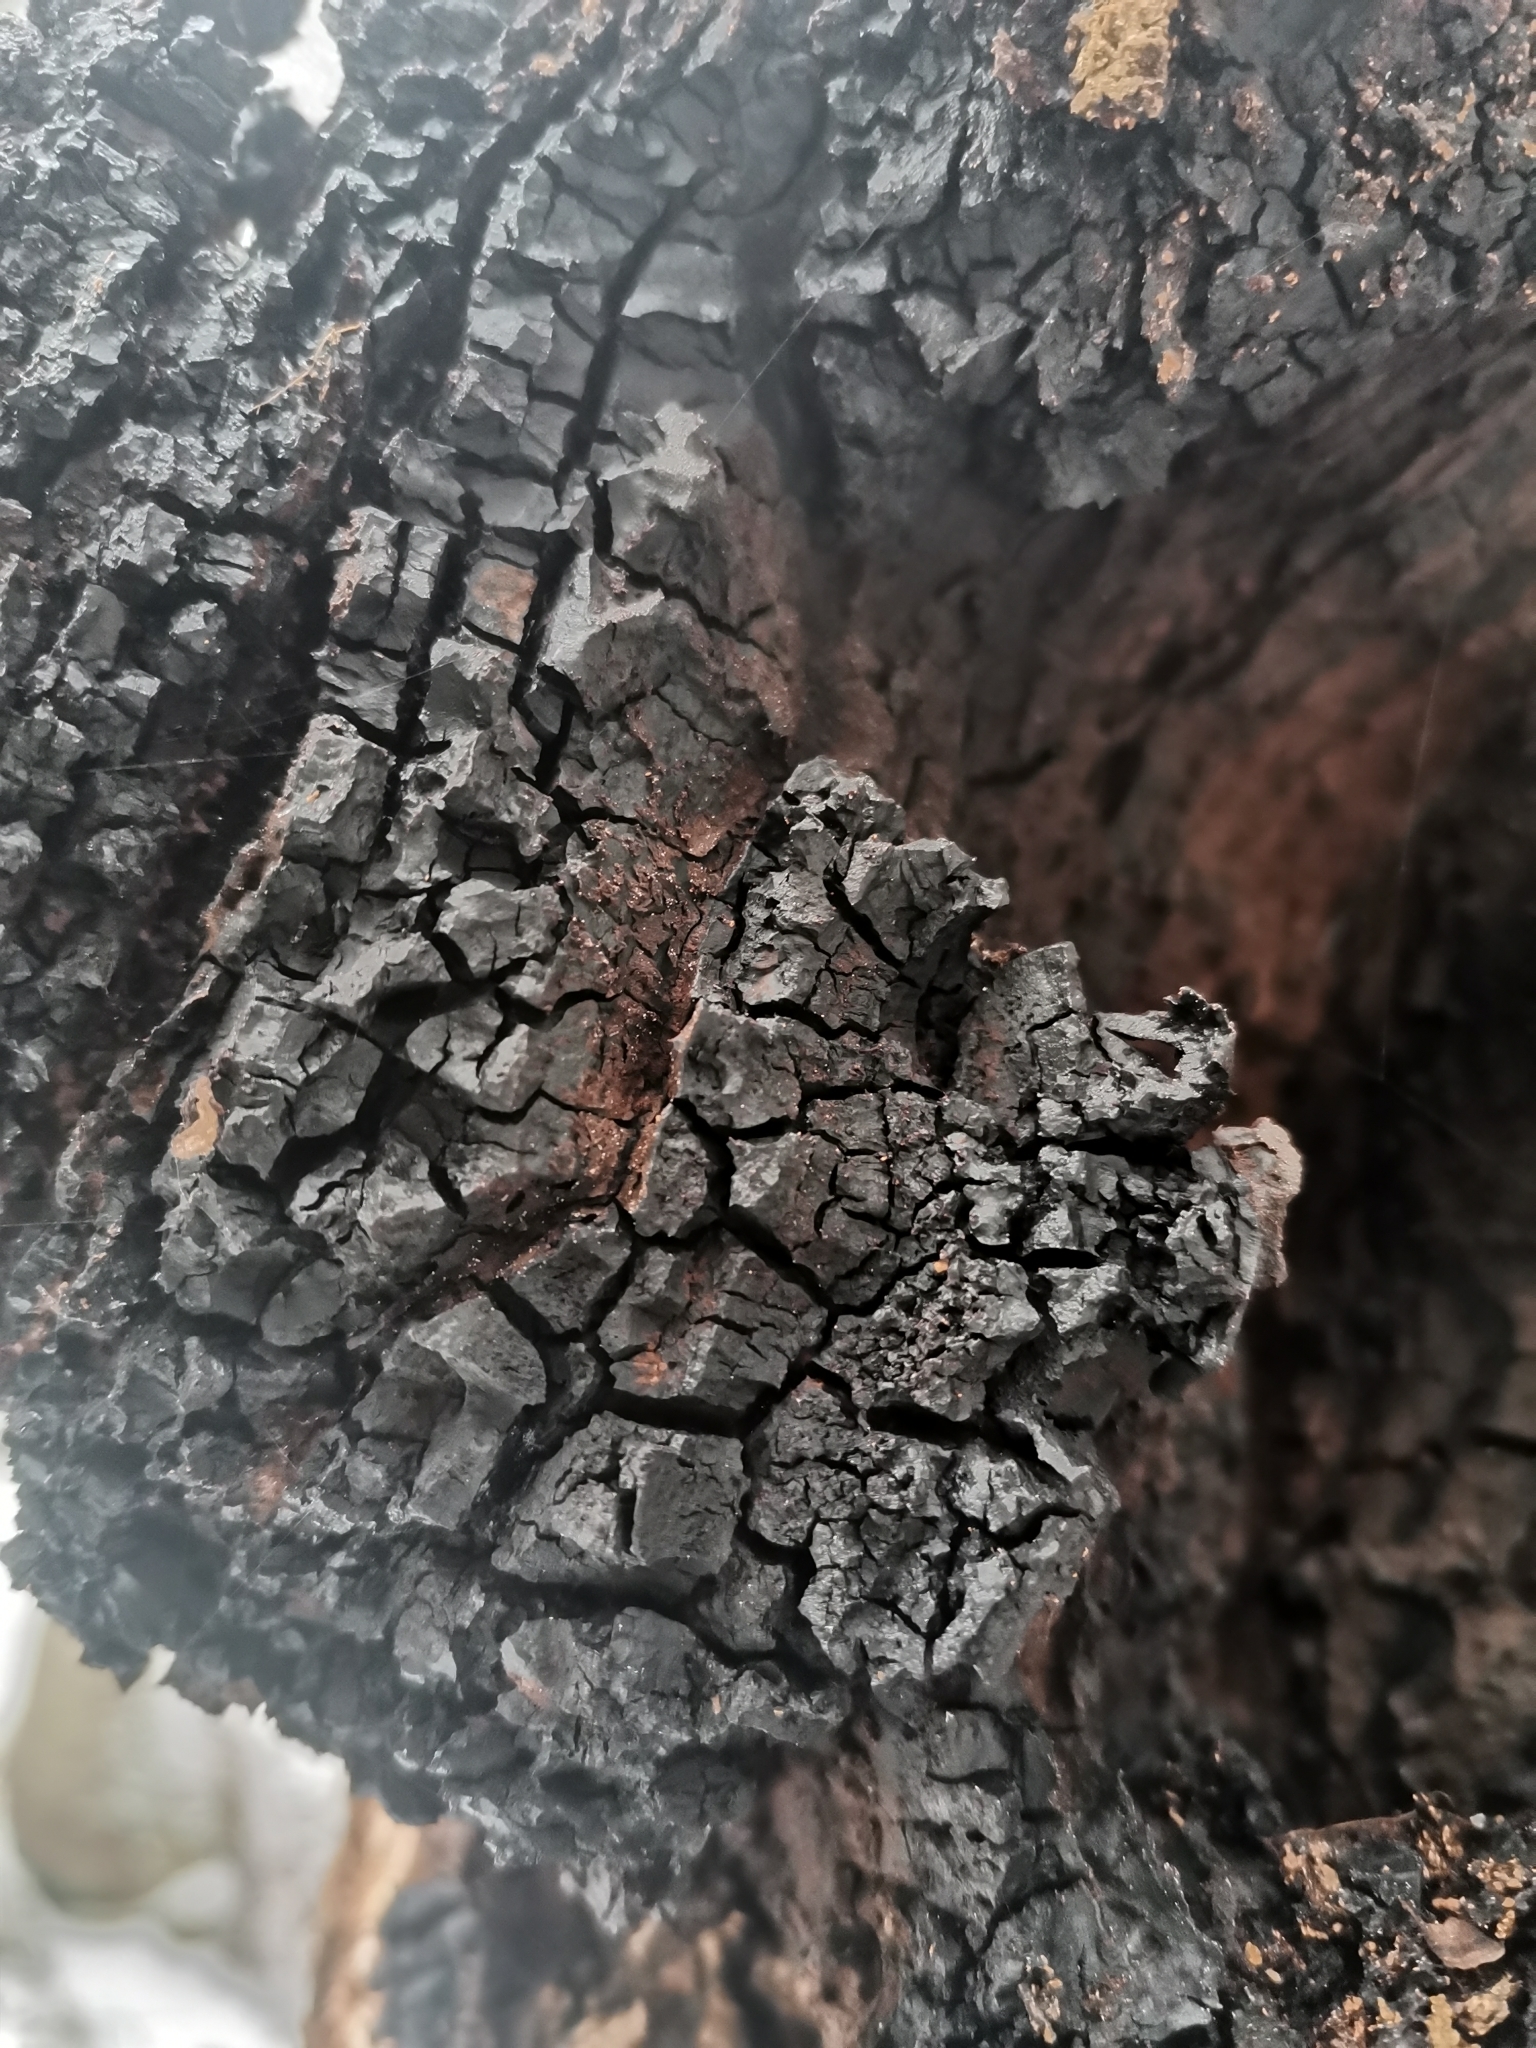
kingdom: Fungi
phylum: Basidiomycota
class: Agaricomycetes
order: Hymenochaetales
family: Hymenochaetaceae
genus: Inonotus
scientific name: Inonotus obliquus
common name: Chaga
